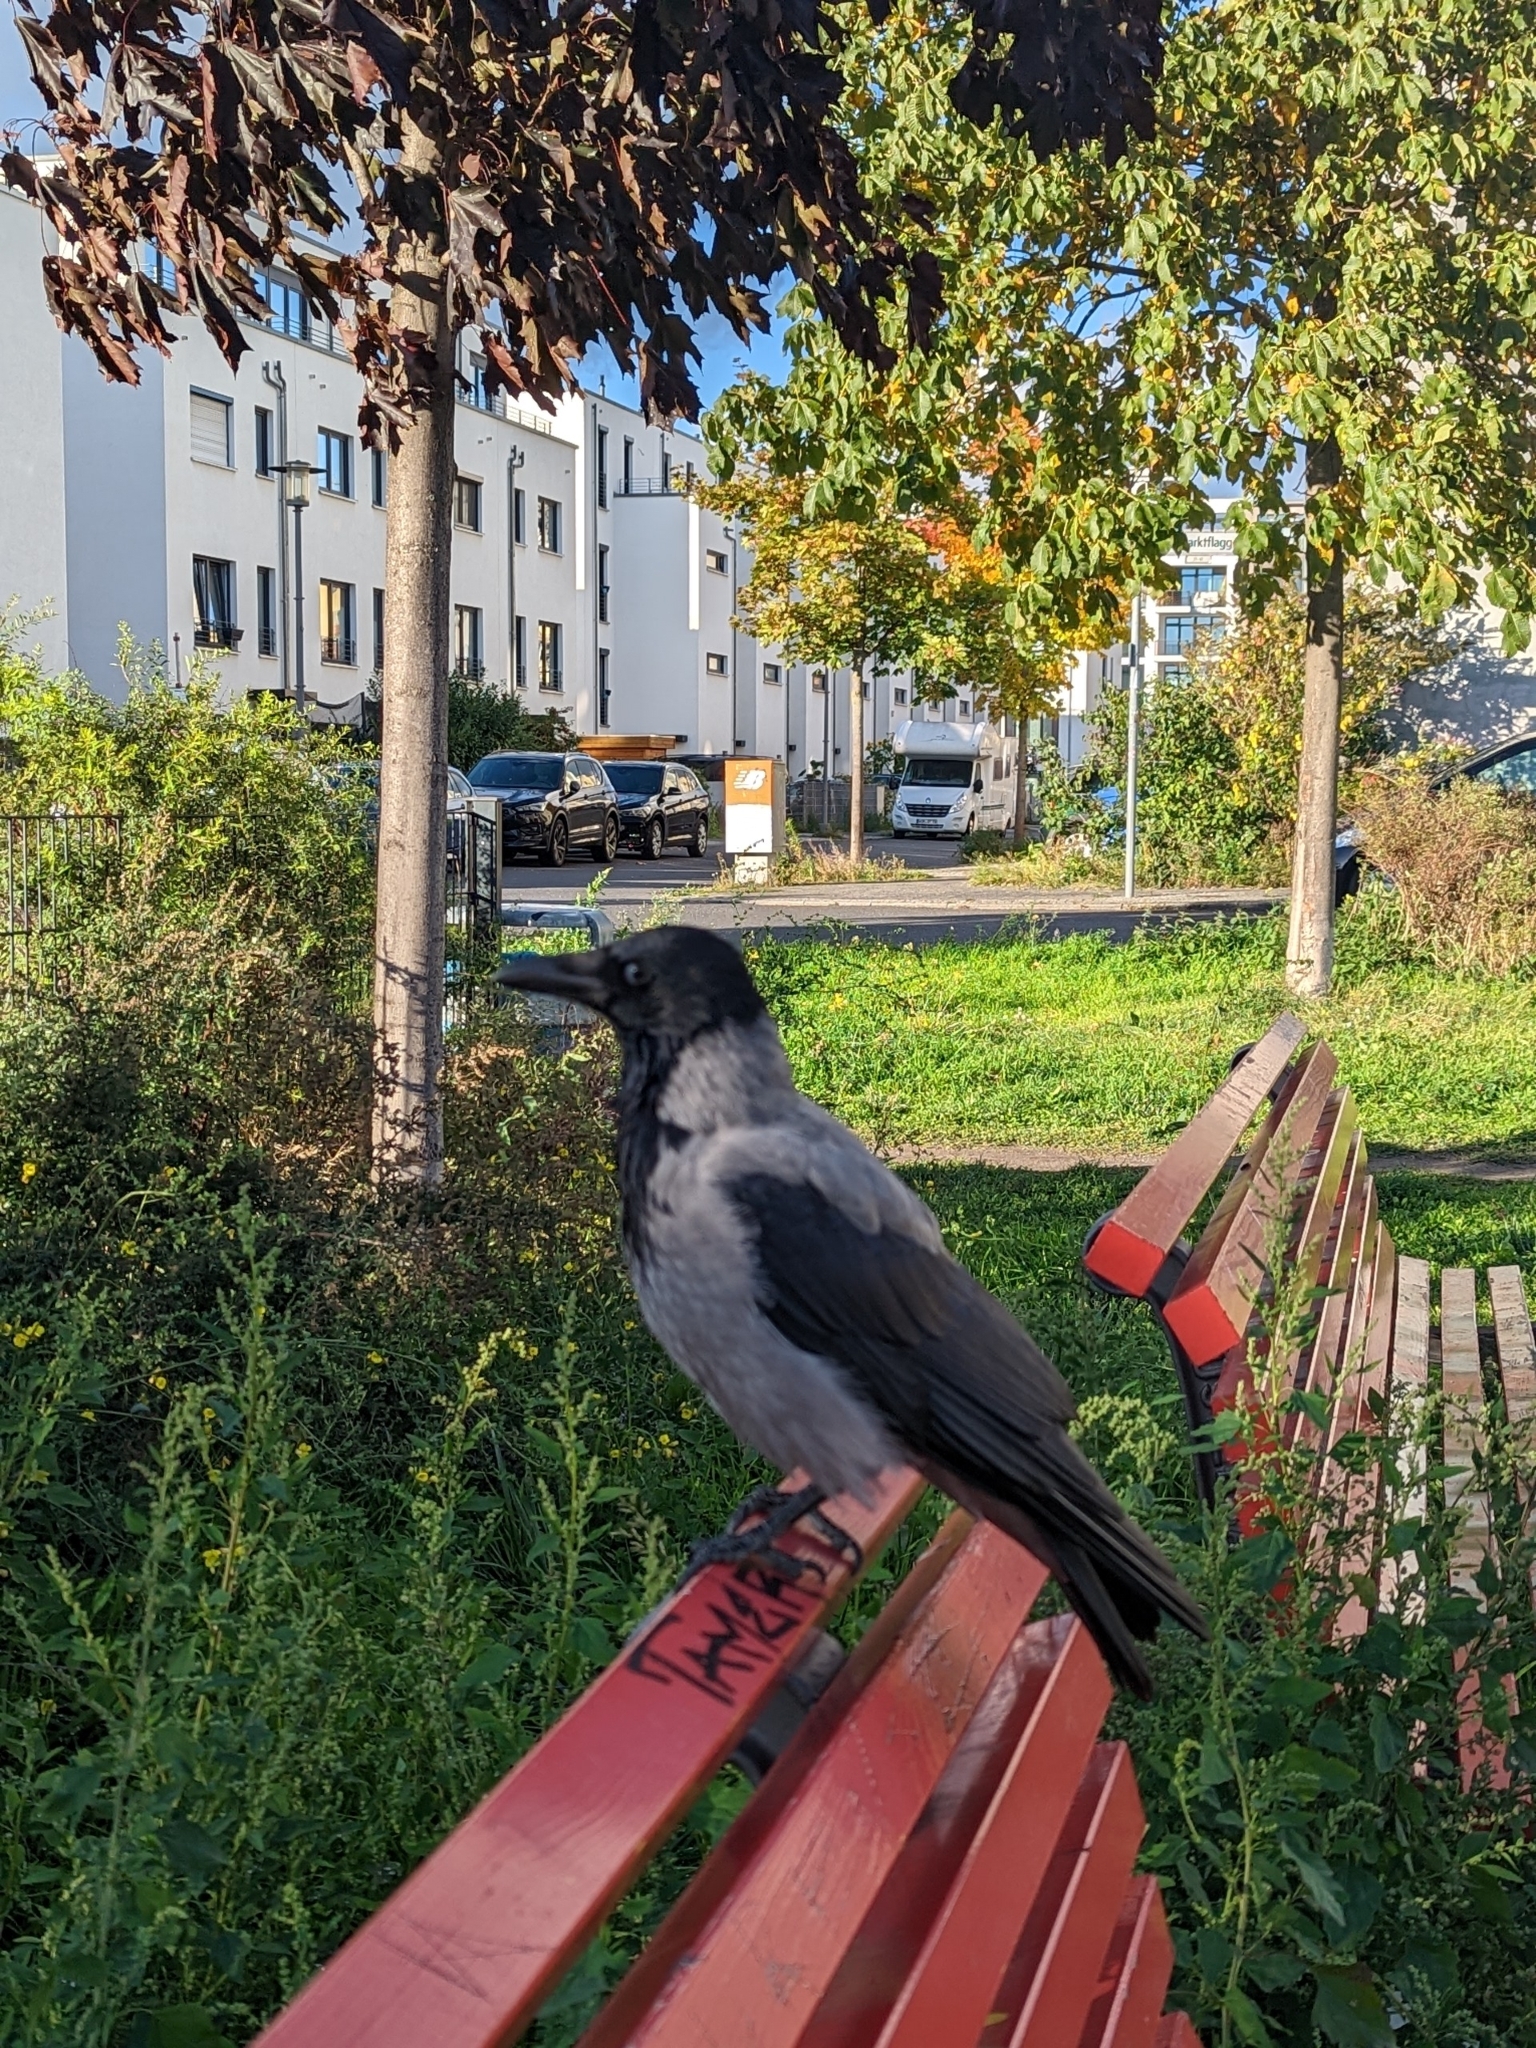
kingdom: Animalia
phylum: Chordata
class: Aves
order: Passeriformes
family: Corvidae
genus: Corvus
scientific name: Corvus cornix
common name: Hooded crow
